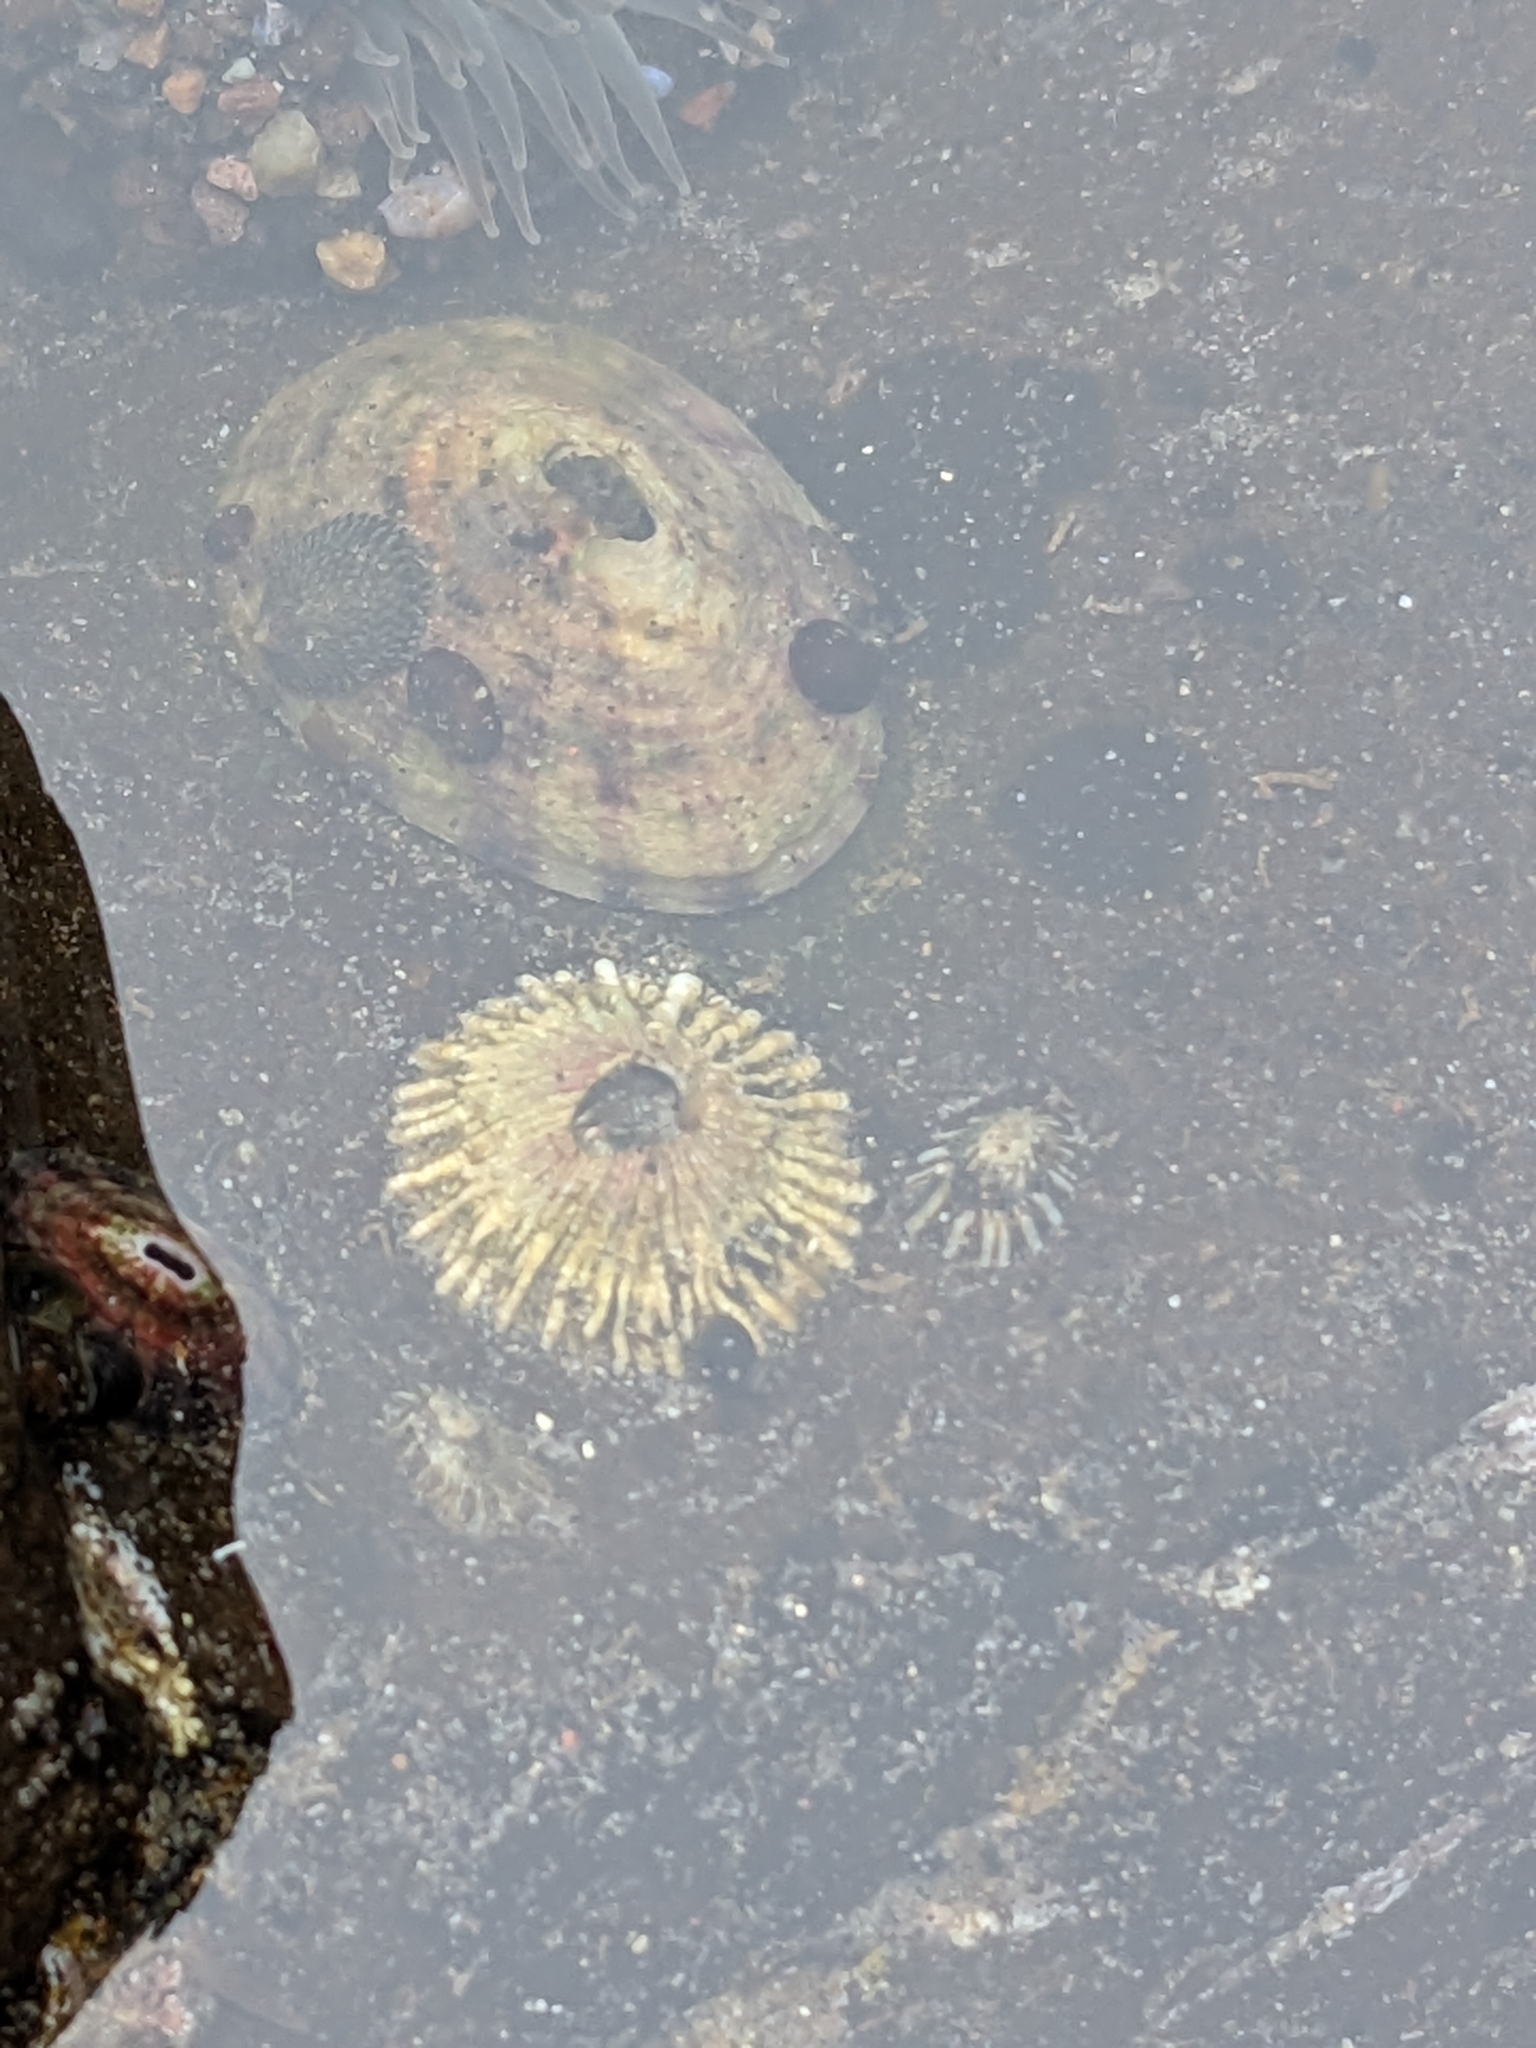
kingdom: Animalia
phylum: Arthropoda
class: Maxillopoda
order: Sessilia
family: Tetraclitidae
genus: Tetraclita
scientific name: Tetraclita rubescens
